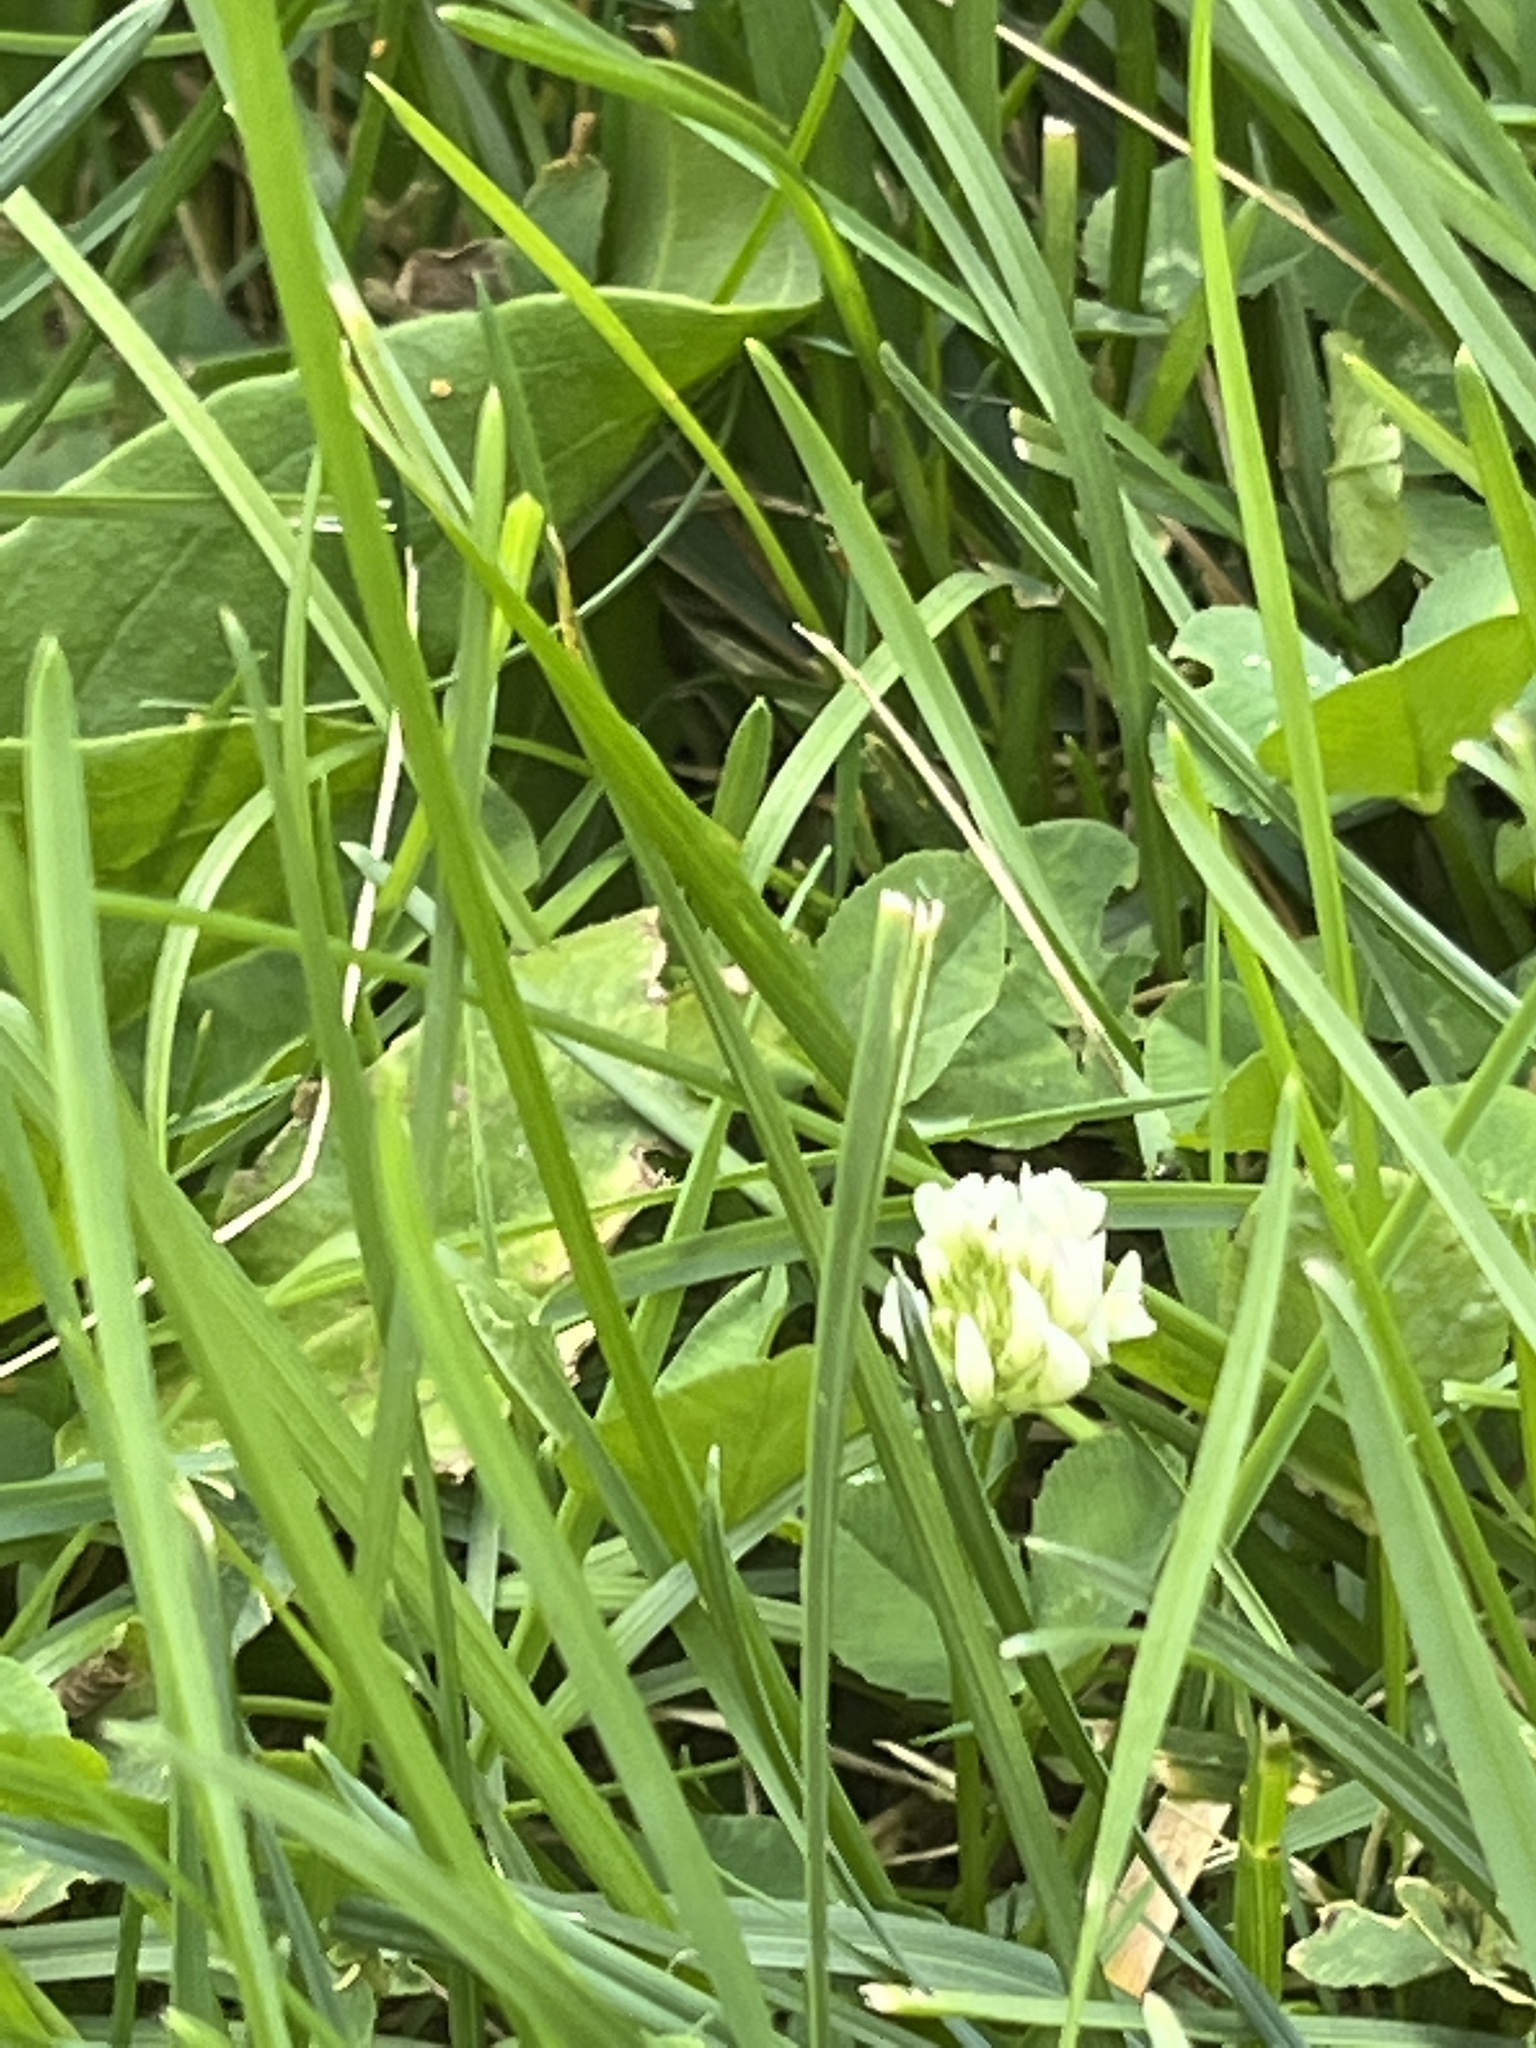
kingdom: Plantae
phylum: Tracheophyta
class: Magnoliopsida
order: Fabales
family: Fabaceae
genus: Trifolium
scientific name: Trifolium repens
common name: White clover
